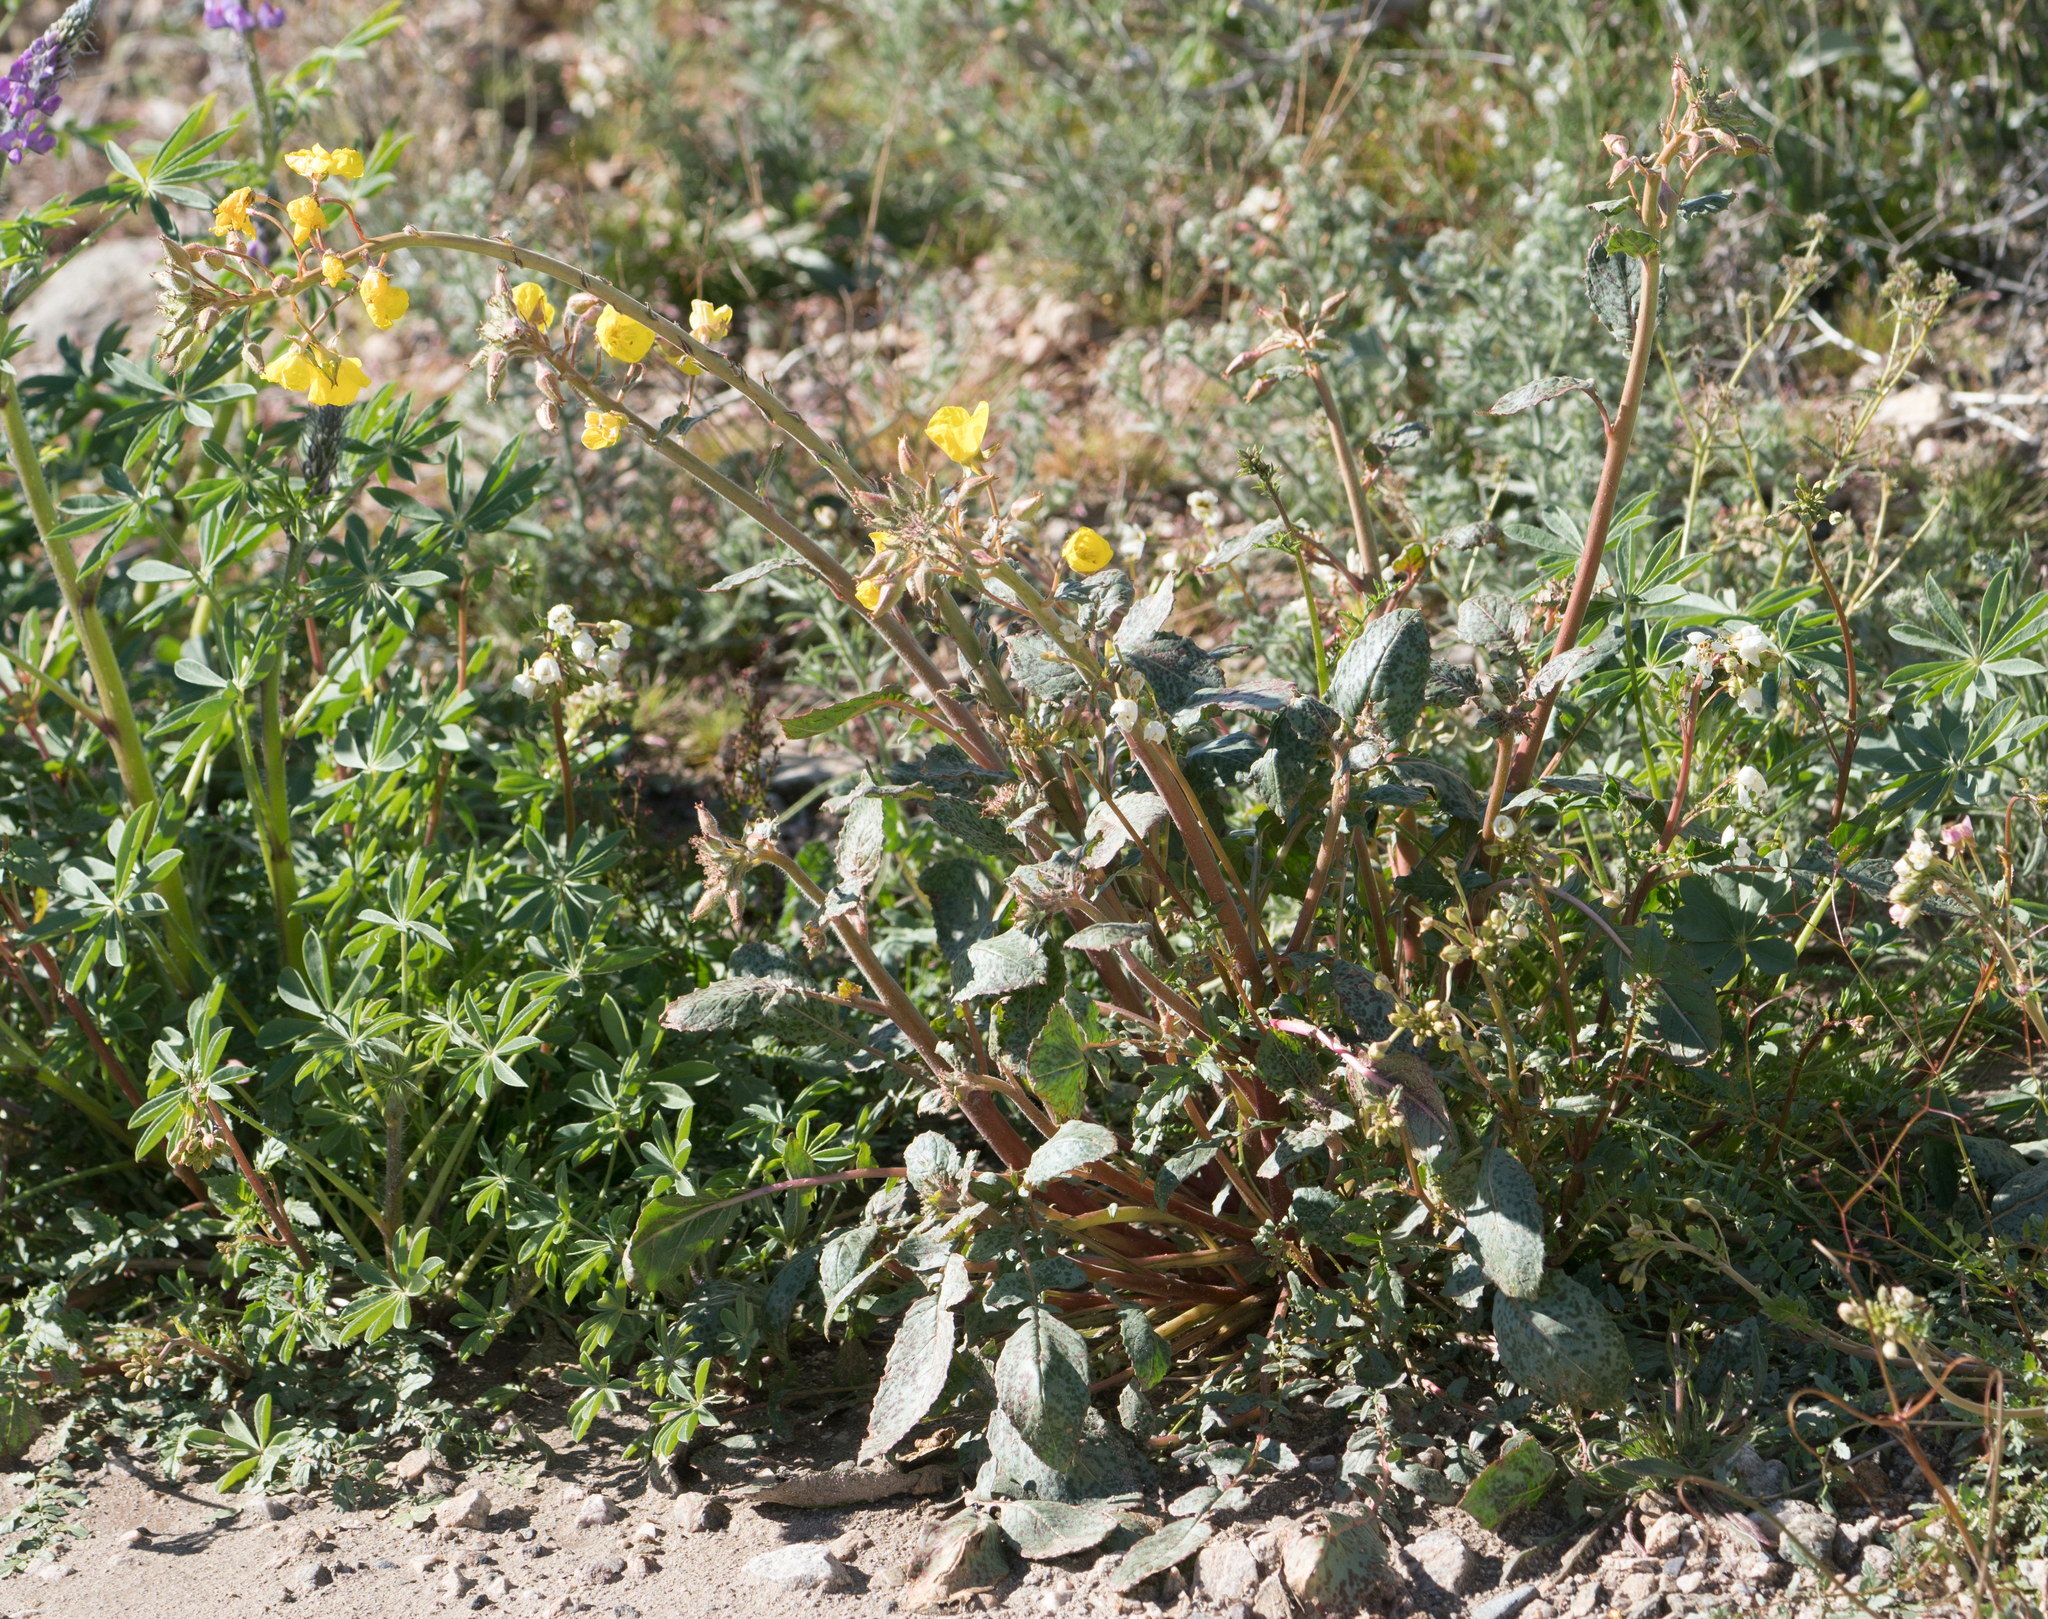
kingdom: Plantae
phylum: Tracheophyta
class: Magnoliopsida
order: Myrtales
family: Onagraceae
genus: Chylismia
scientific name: Chylismia brevipes
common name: Yellow cups
